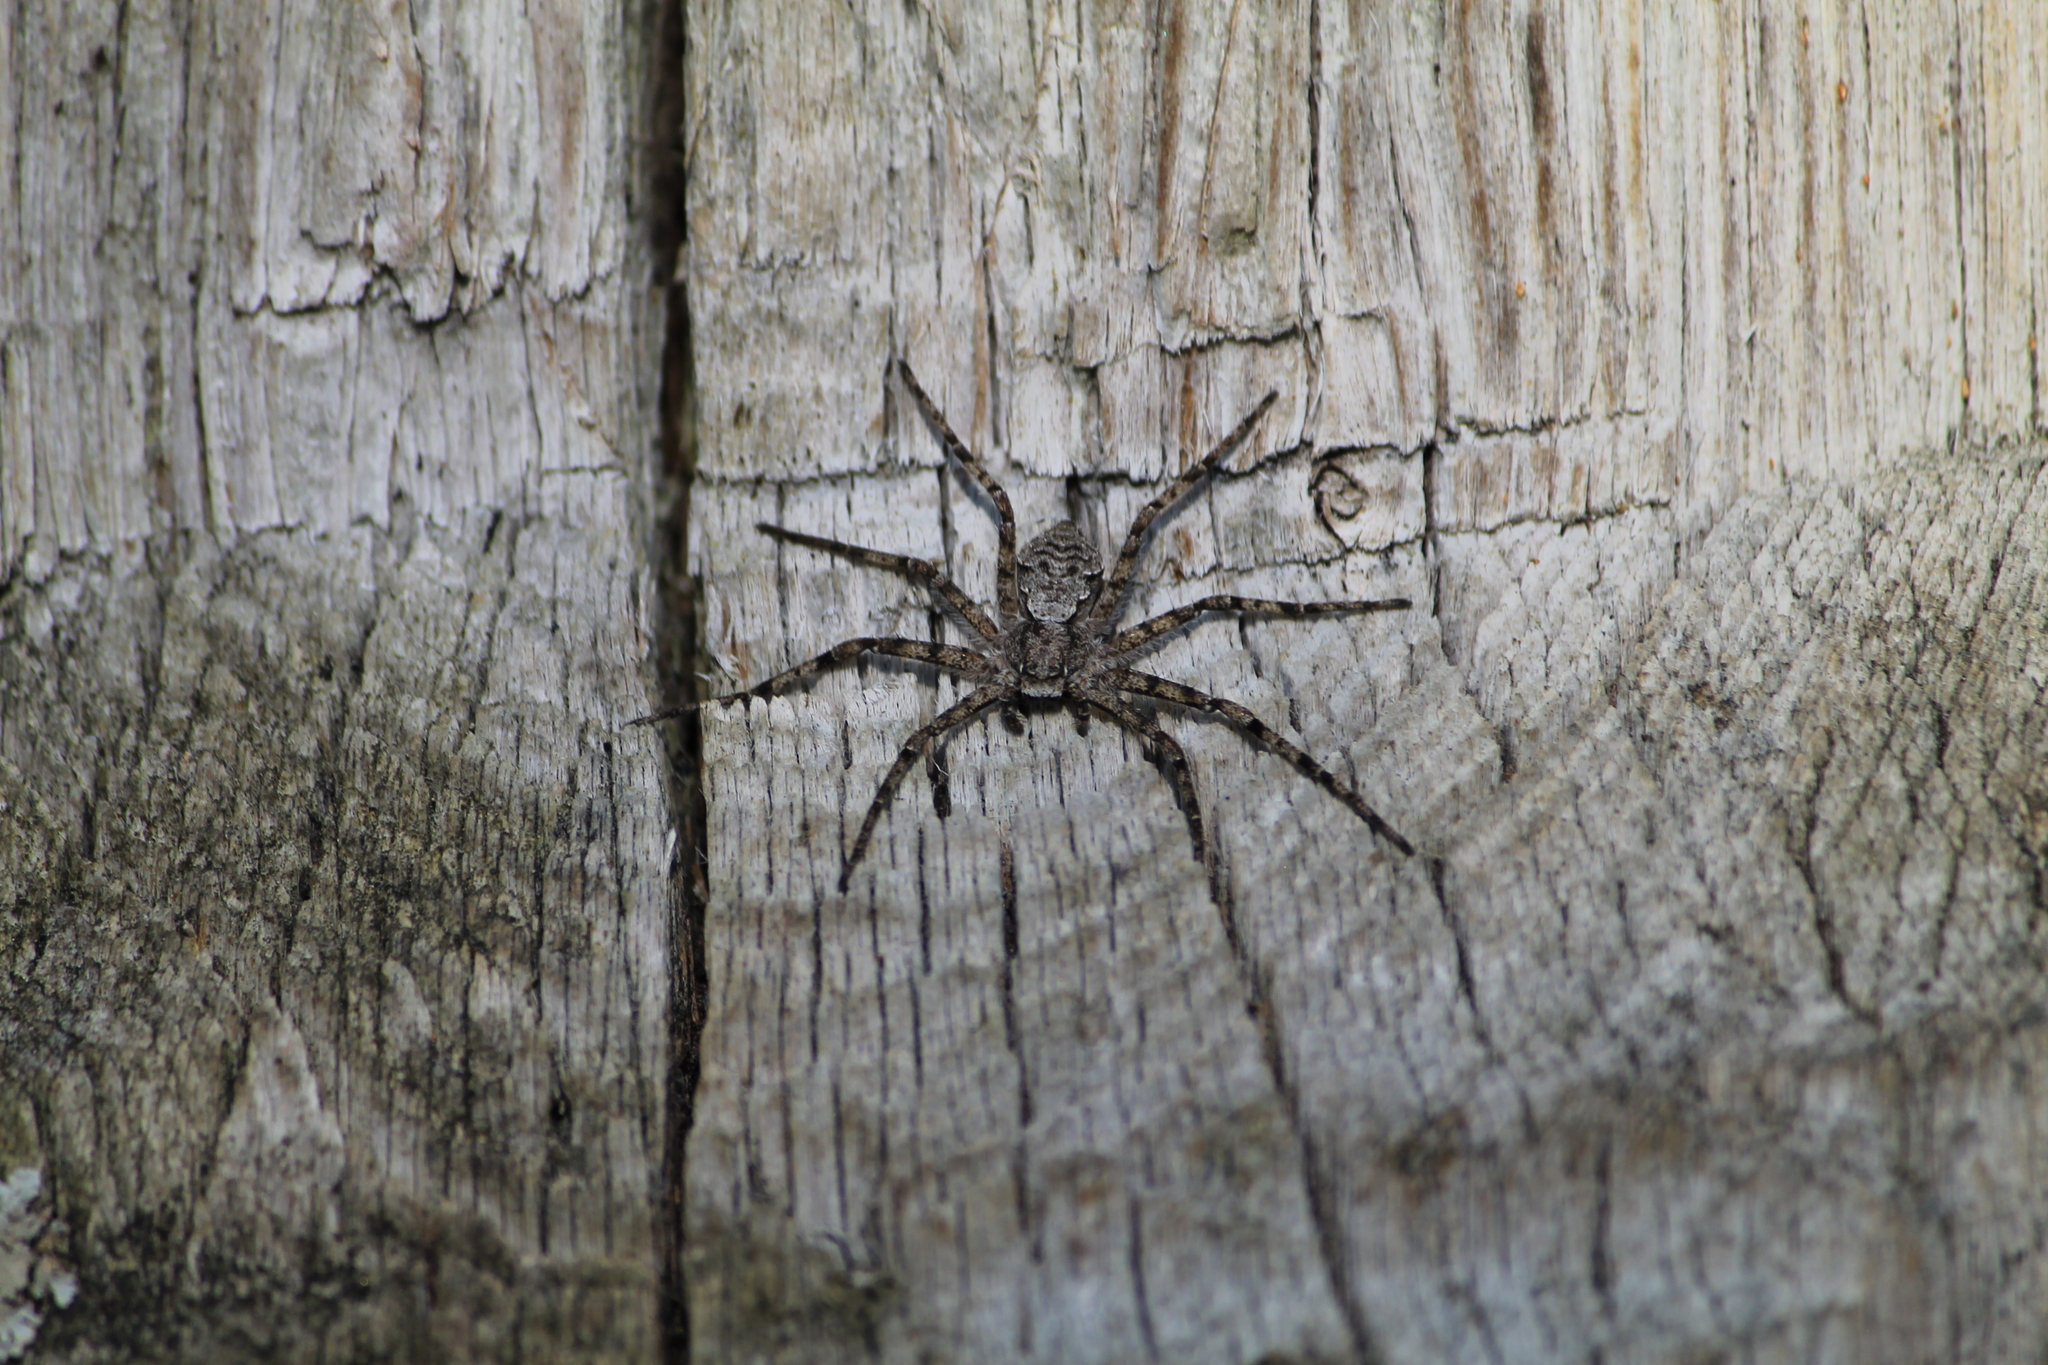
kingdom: Animalia
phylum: Arthropoda
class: Arachnida
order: Araneae
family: Philodromidae
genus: Philodromus
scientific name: Philodromus margaritatus
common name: Lichen running-spider
